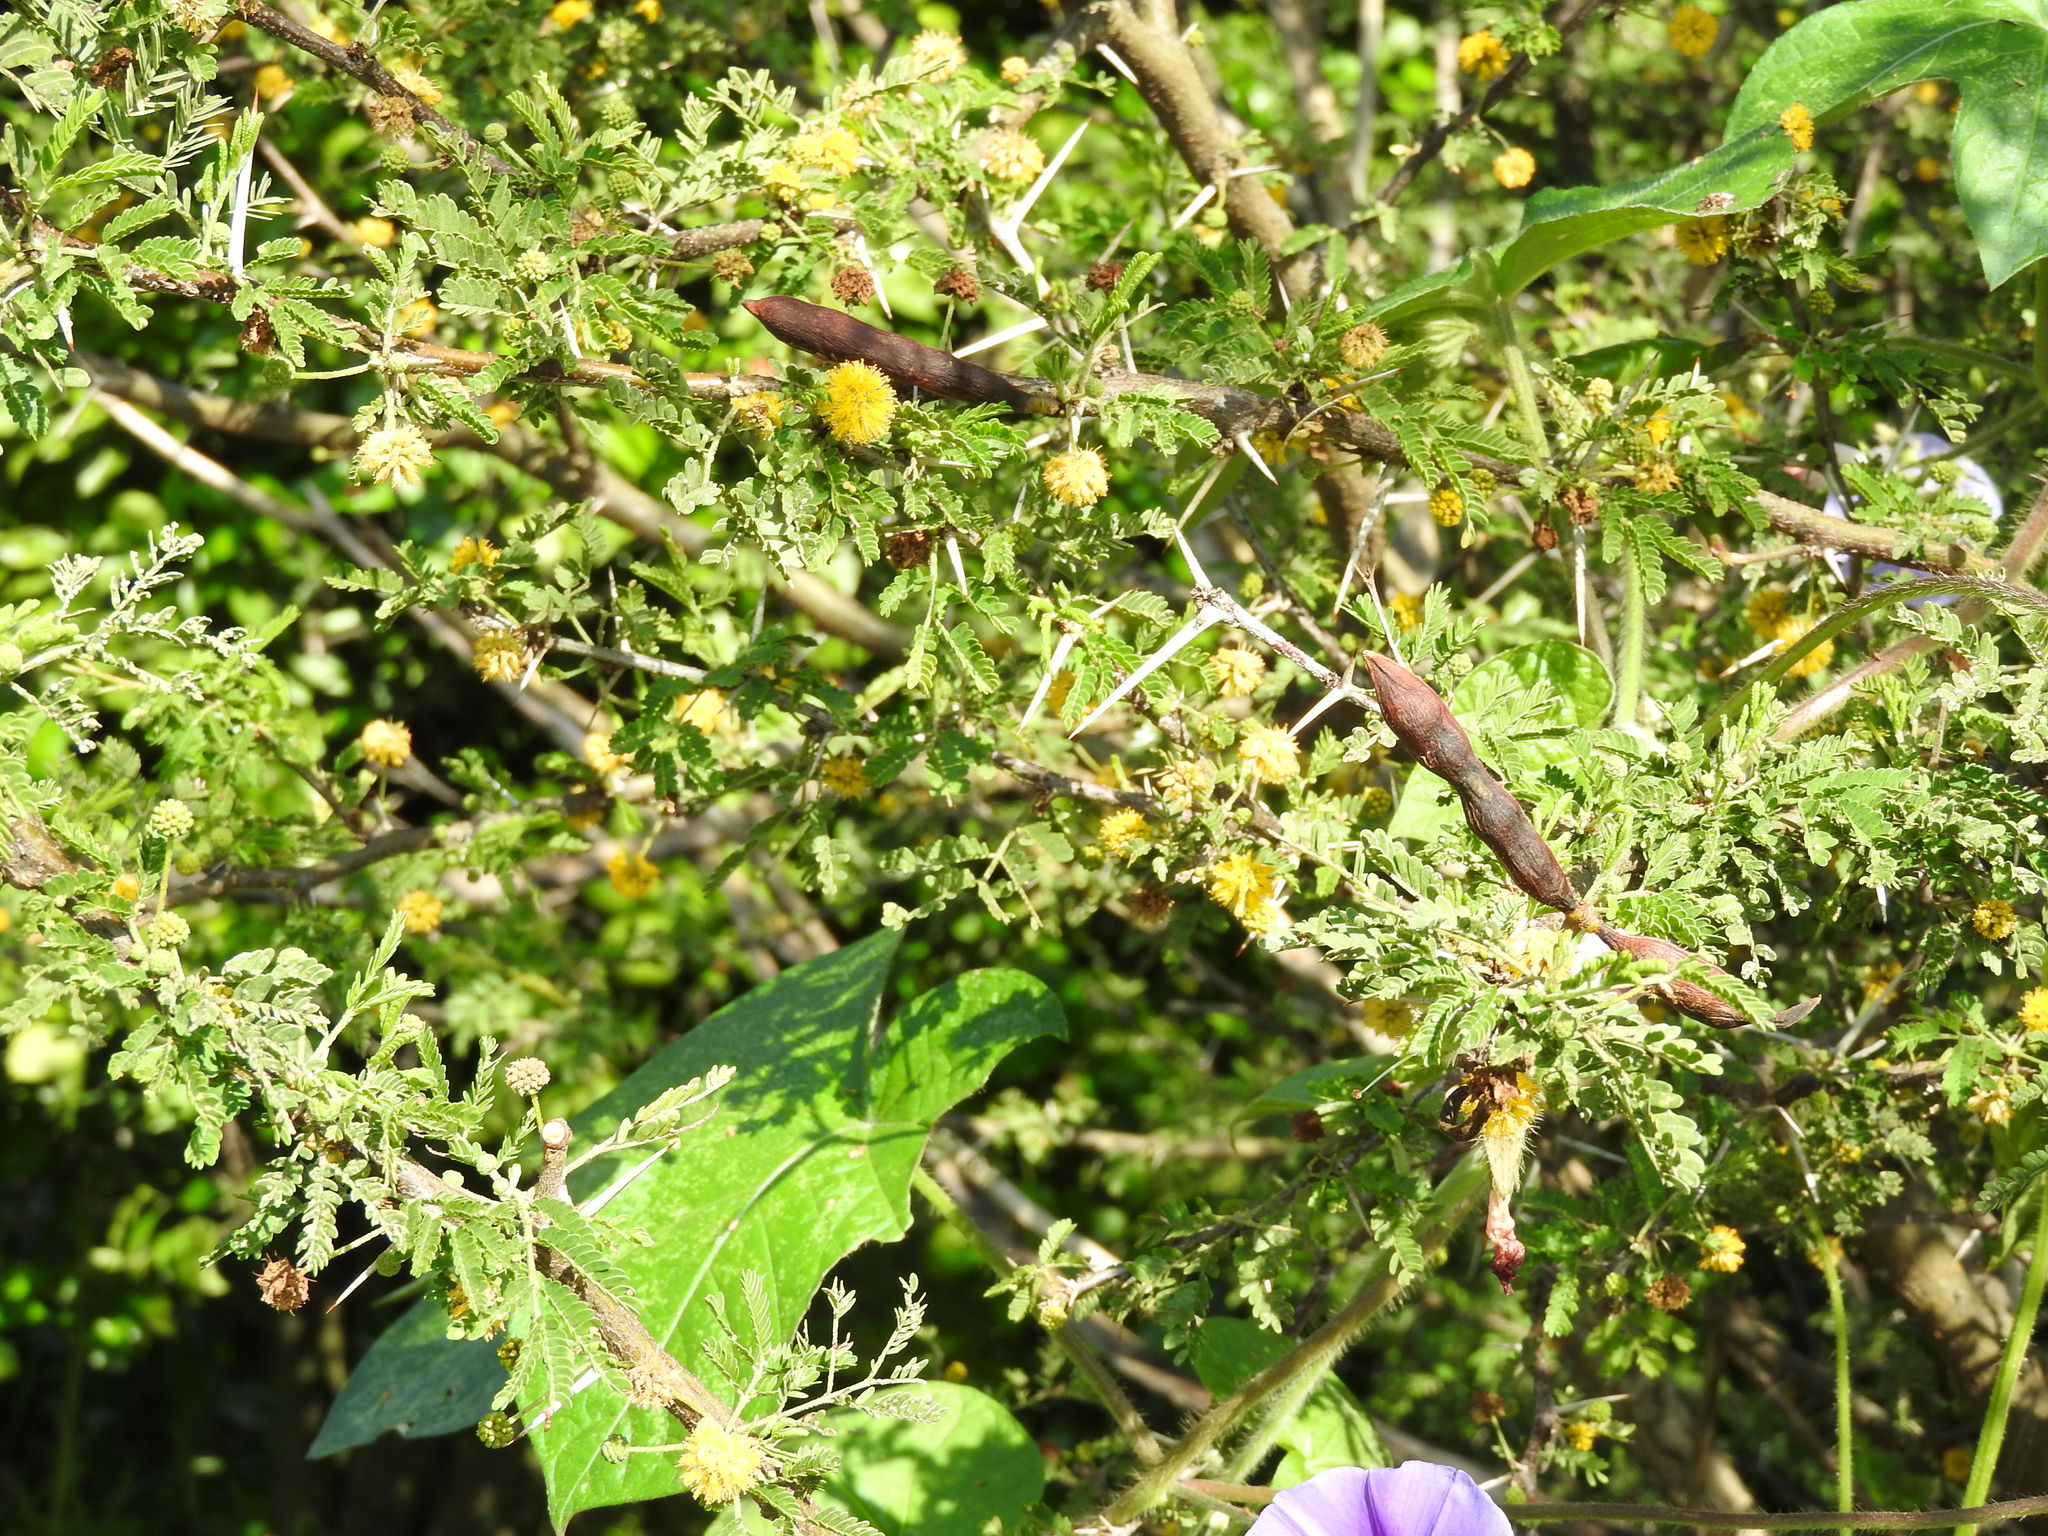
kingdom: Plantae
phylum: Tracheophyta
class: Magnoliopsida
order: Fabales
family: Fabaceae
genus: Vachellia
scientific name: Vachellia farnesiana
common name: Sweet acacia
